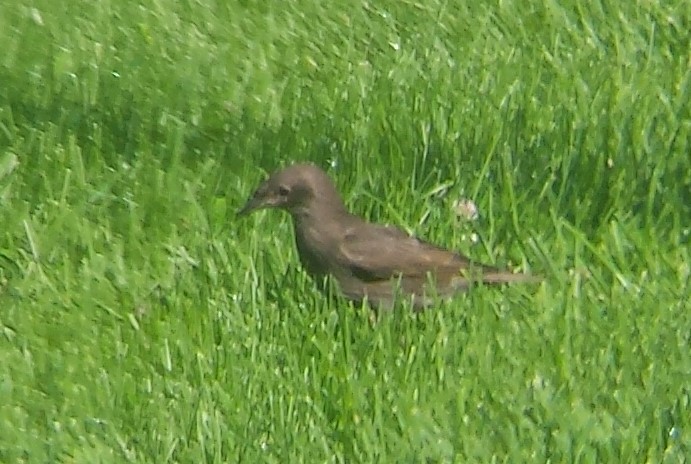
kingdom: Animalia
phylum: Chordata
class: Aves
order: Passeriformes
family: Sturnidae
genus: Sturnus
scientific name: Sturnus vulgaris
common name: Common starling
